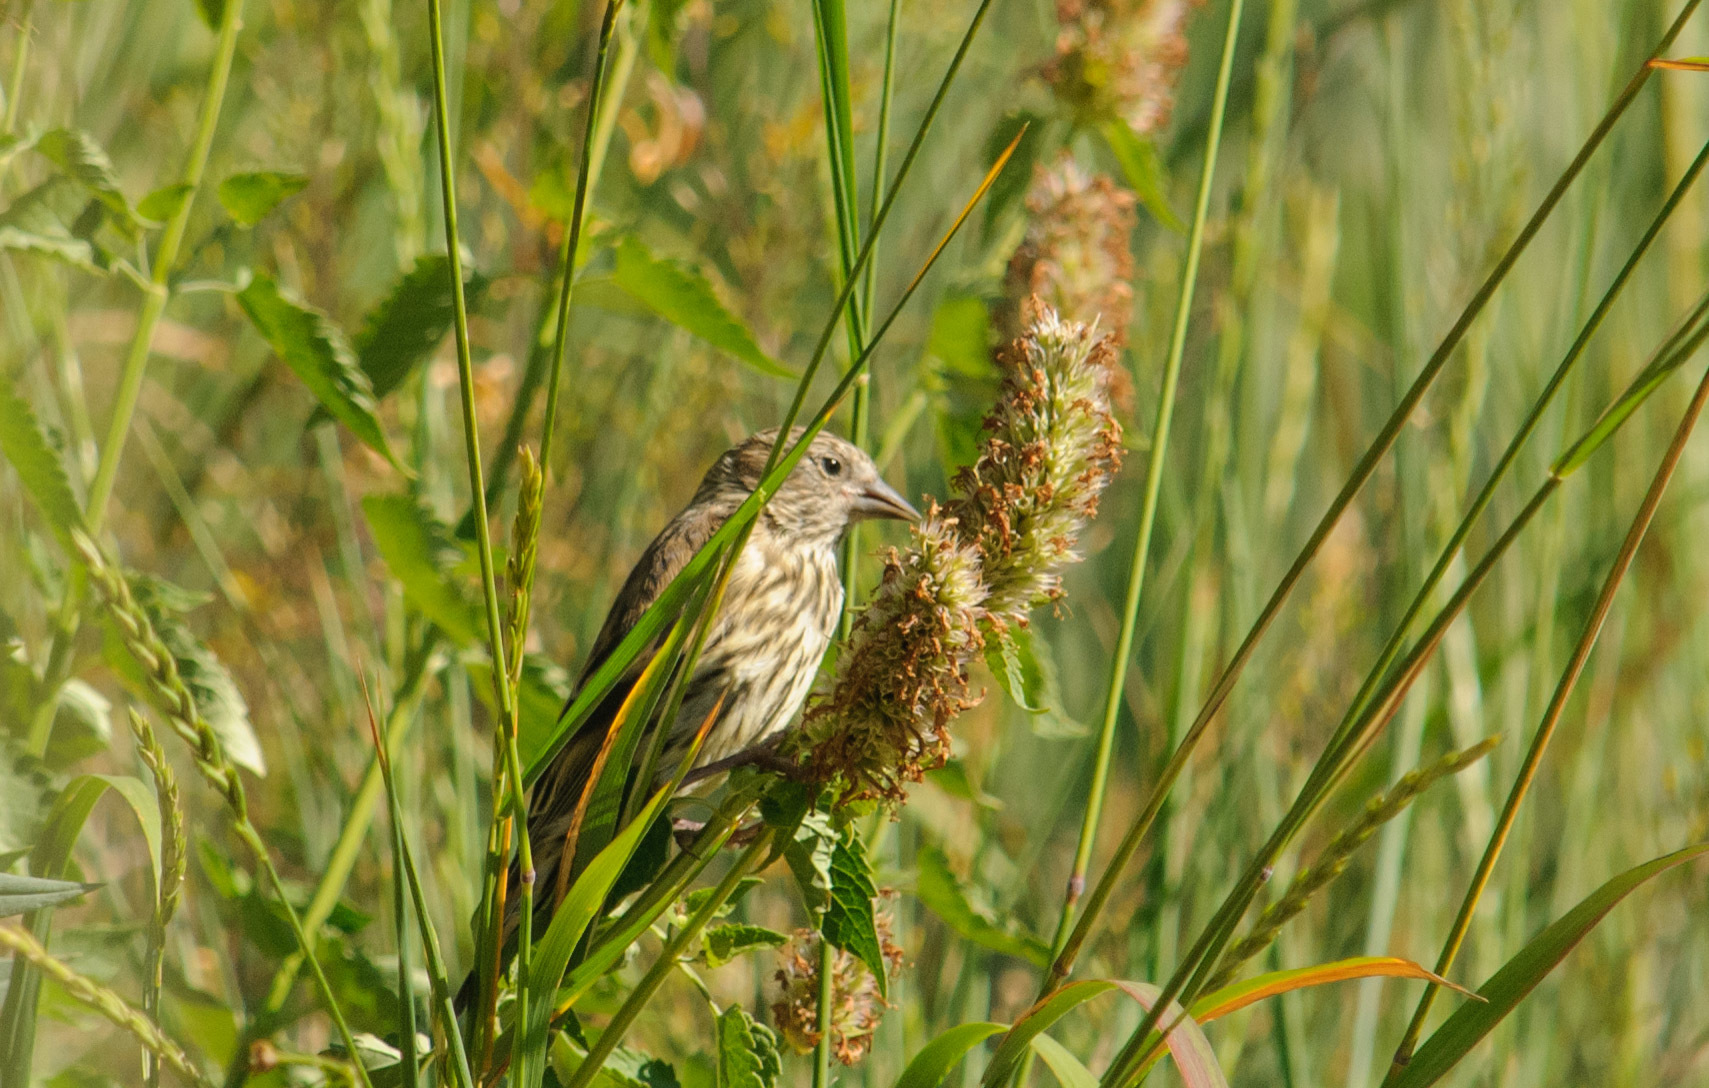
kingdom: Animalia
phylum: Chordata
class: Aves
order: Passeriformes
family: Fringillidae
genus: Spinus
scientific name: Spinus pinus
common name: Pine siskin
